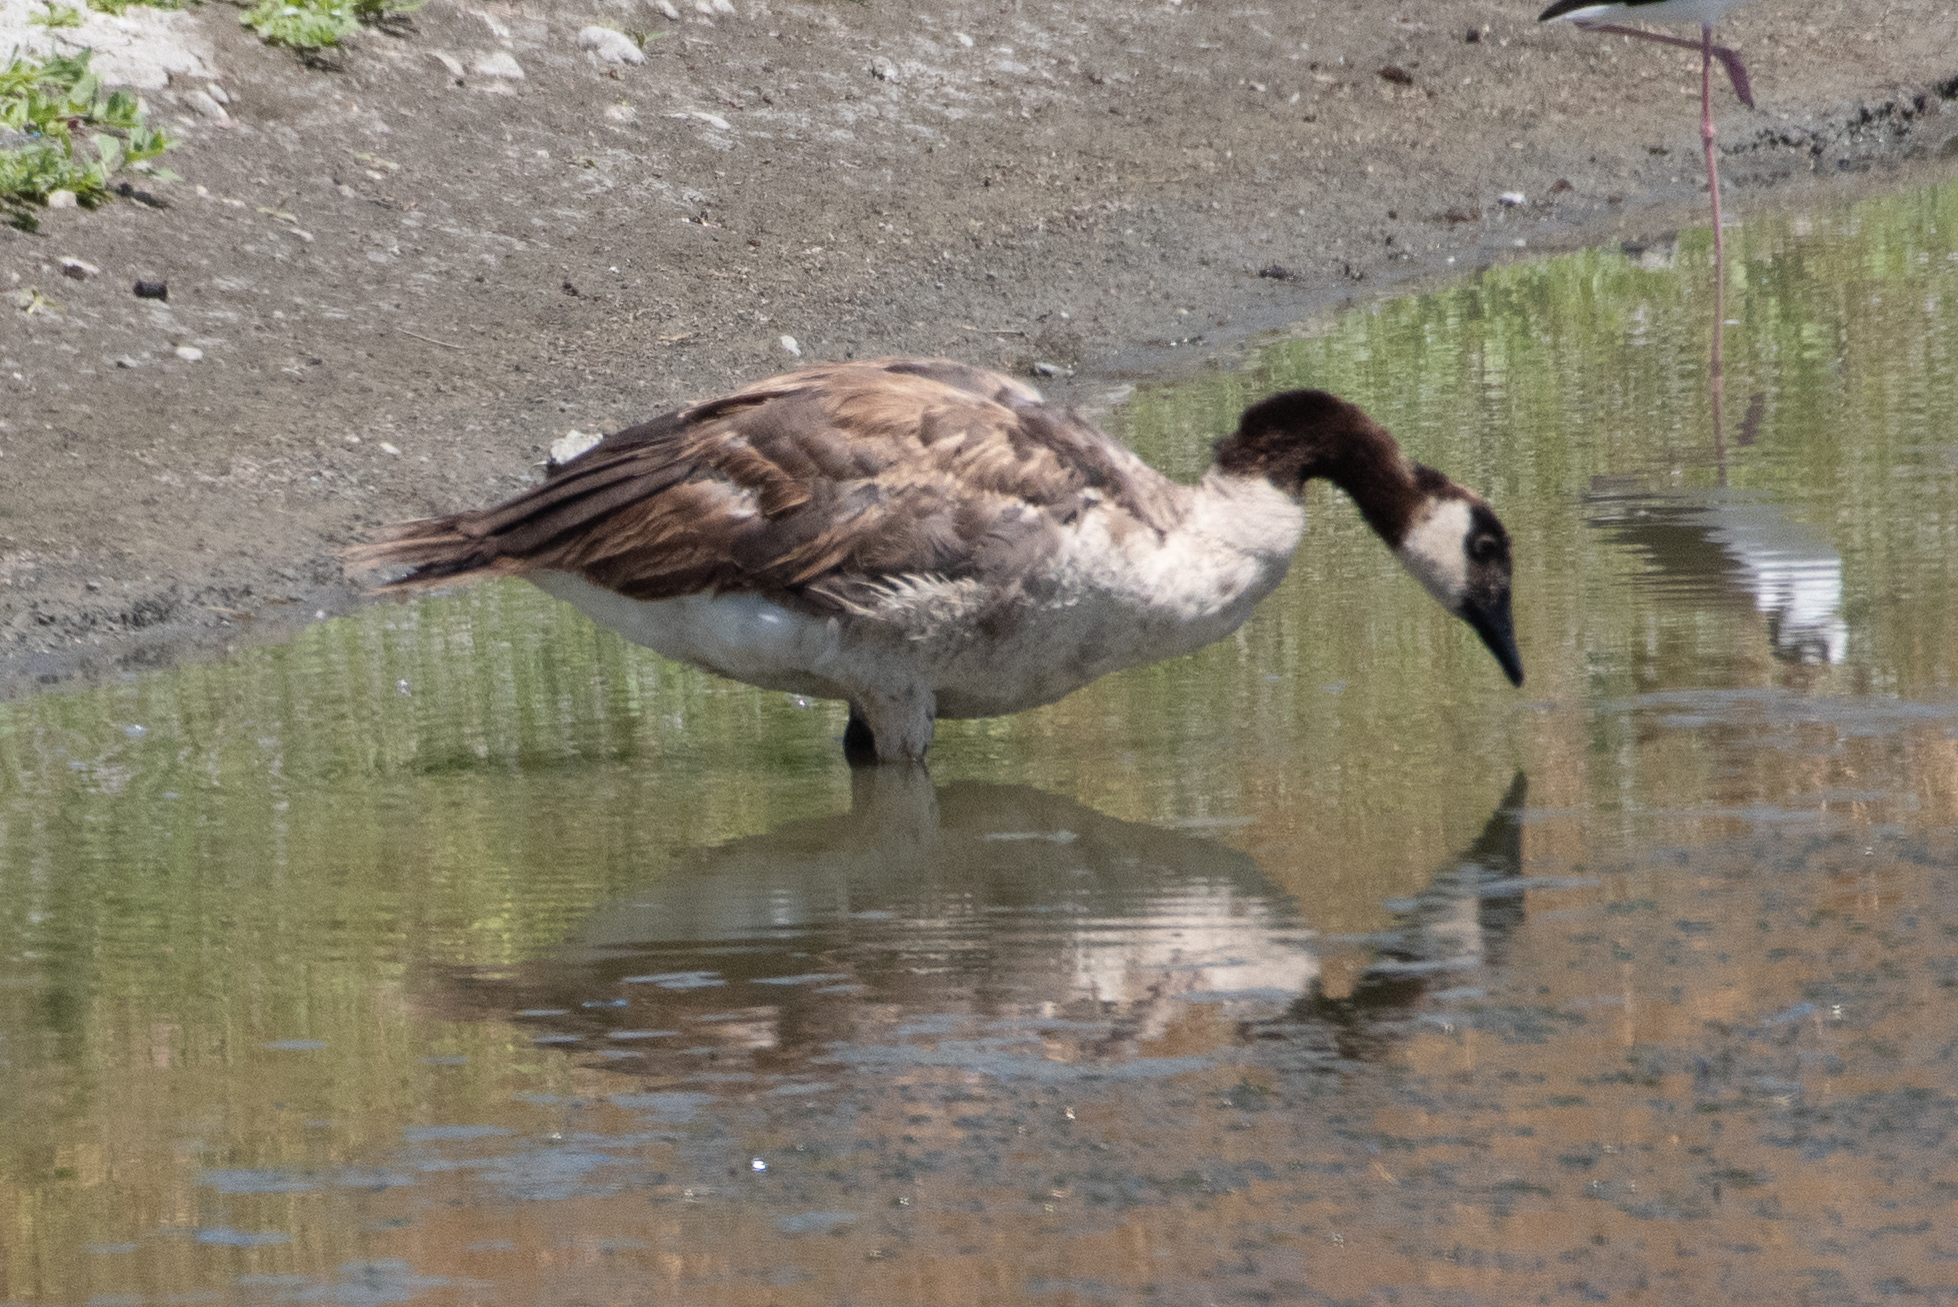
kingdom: Animalia
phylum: Chordata
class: Aves
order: Anseriformes
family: Anatidae
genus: Branta
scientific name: Branta canadensis
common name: Canada goose
